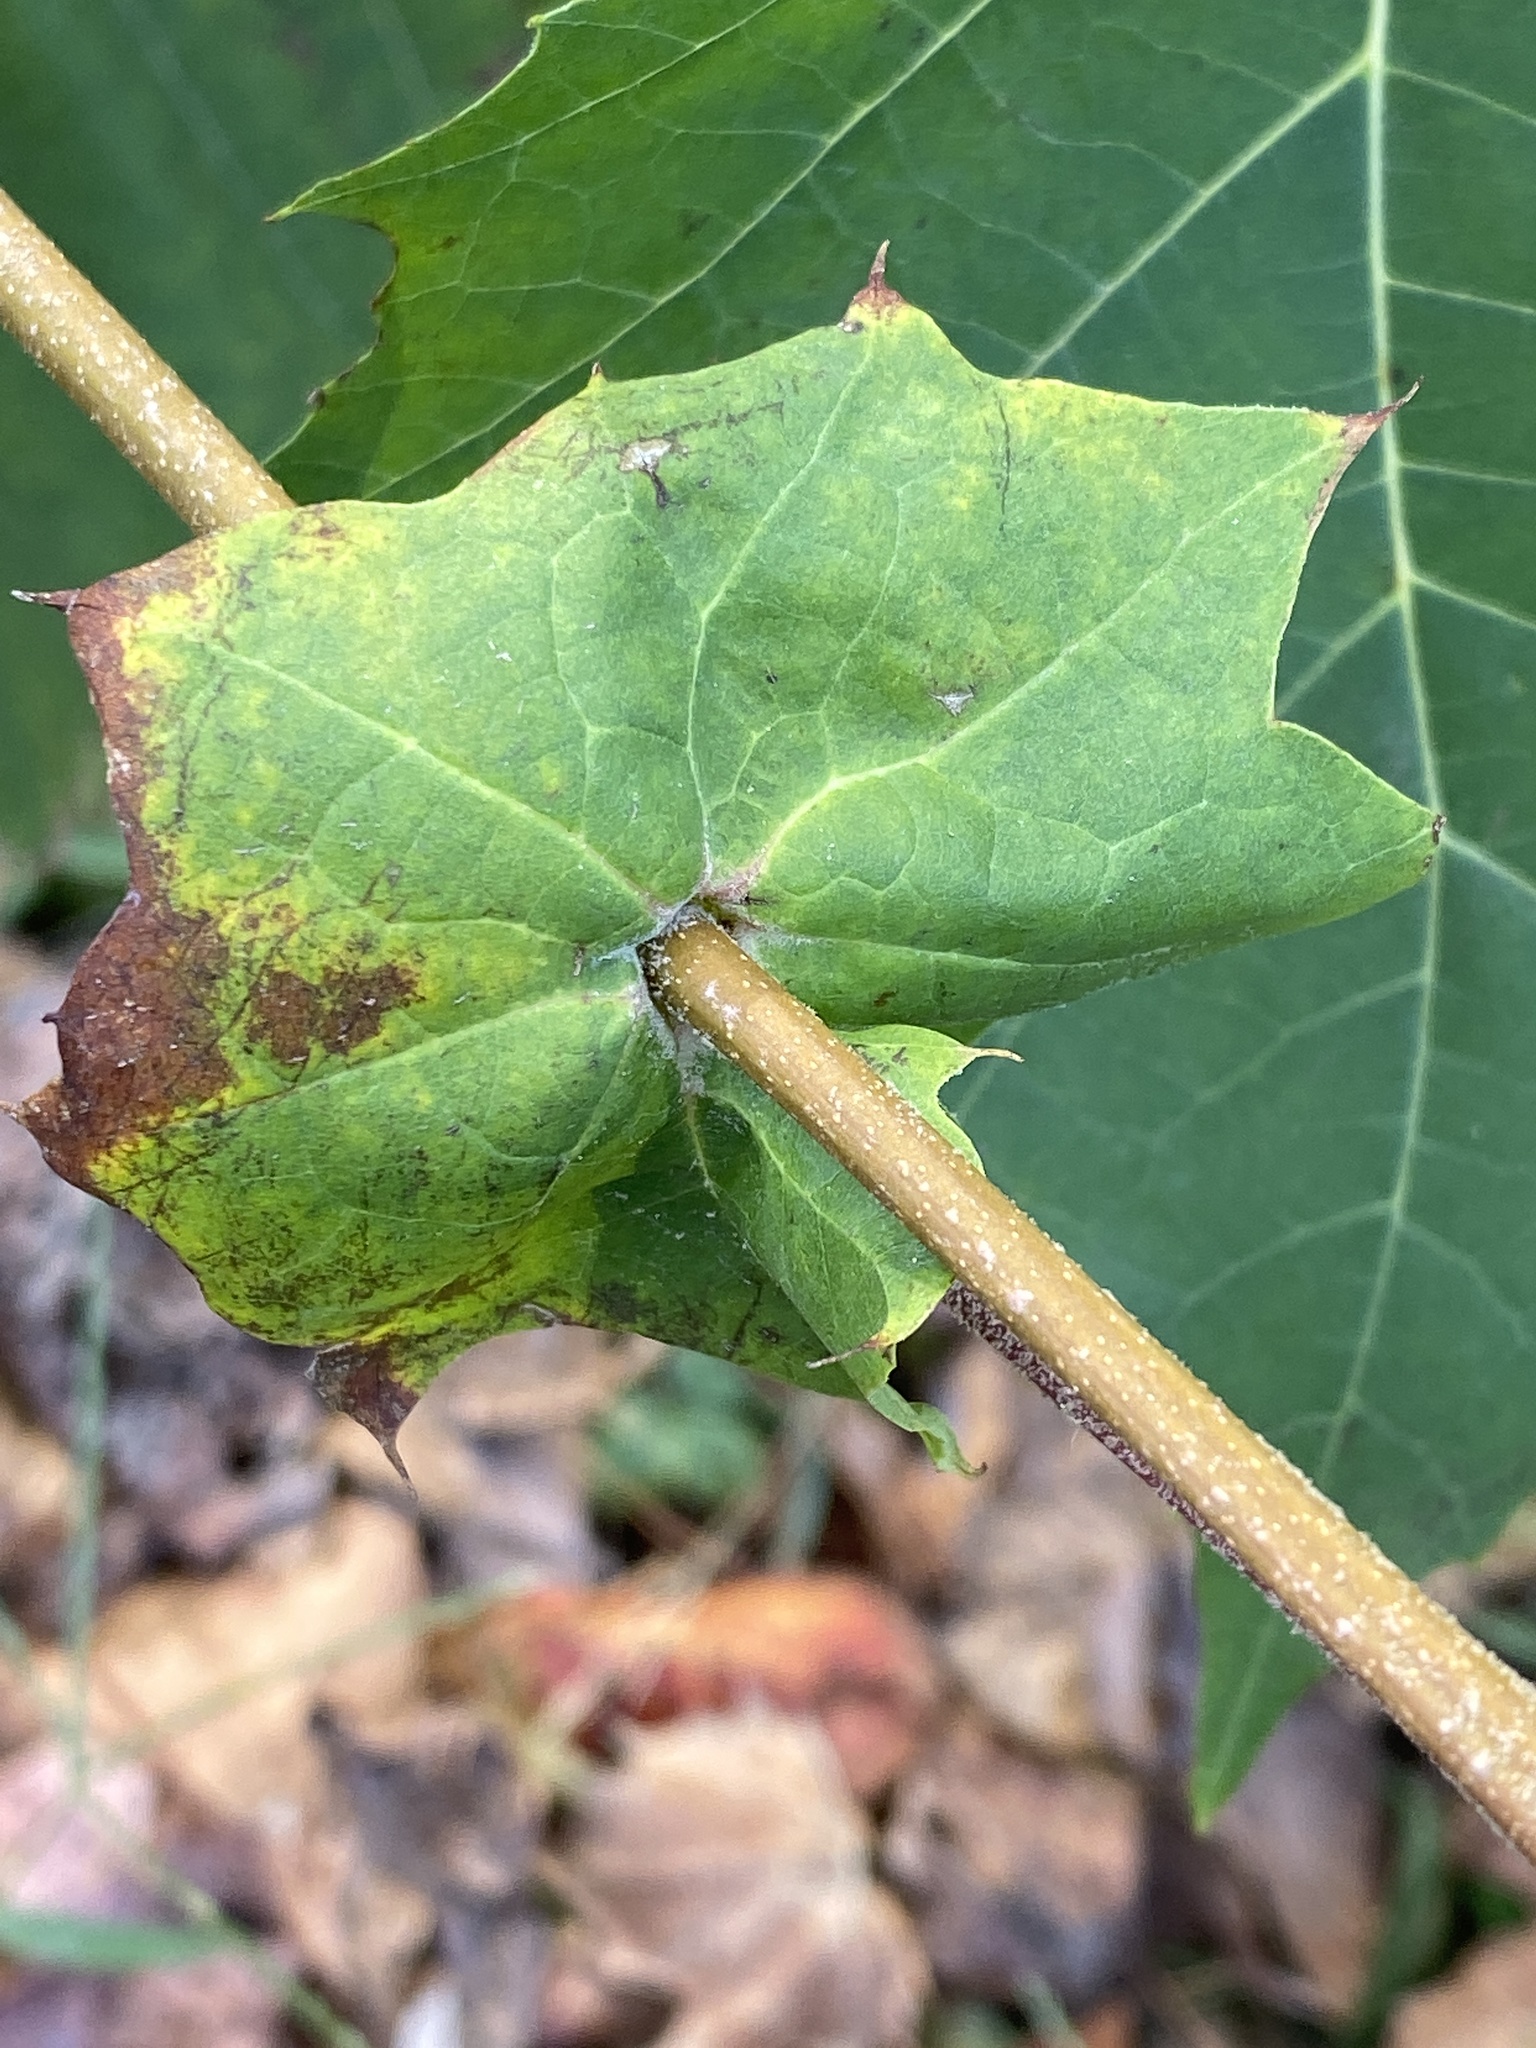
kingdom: Plantae
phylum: Tracheophyta
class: Magnoliopsida
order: Proteales
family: Platanaceae
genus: Platanus
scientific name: Platanus occidentalis
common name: American sycamore
